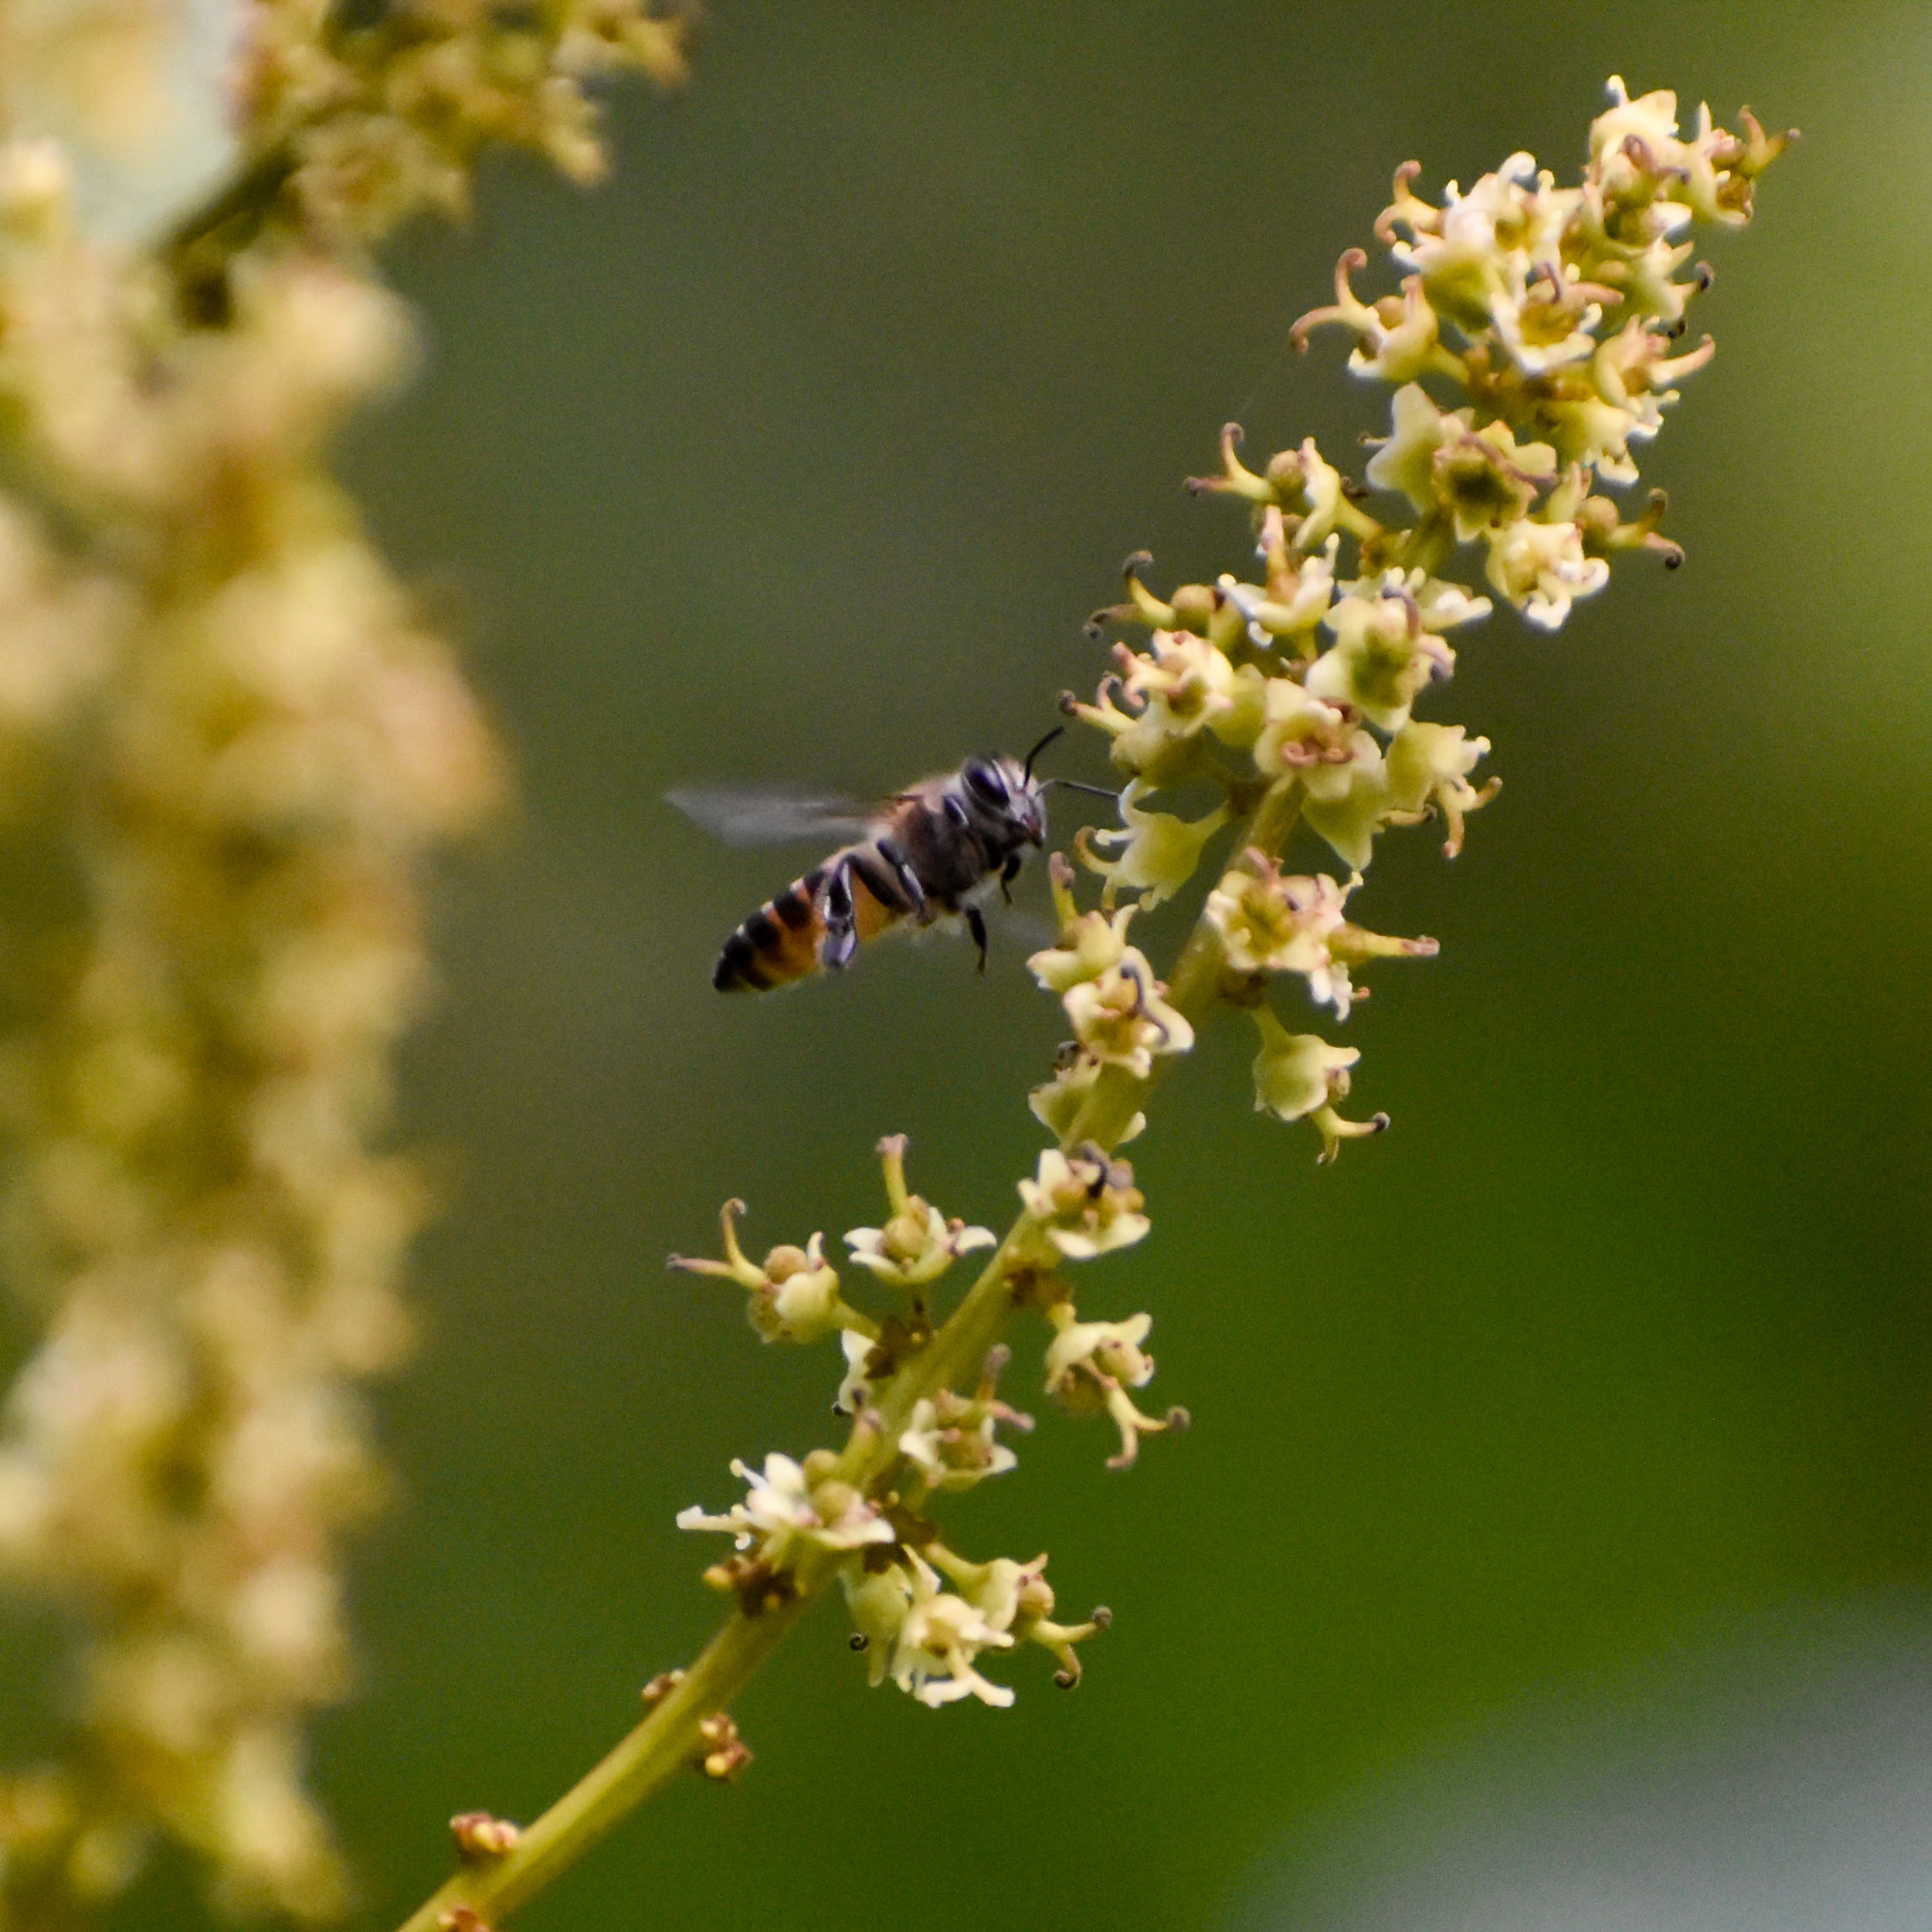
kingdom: Animalia
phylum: Arthropoda
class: Insecta
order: Hymenoptera
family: Apidae
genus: Apis
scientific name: Apis cerana
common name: Honey bee
